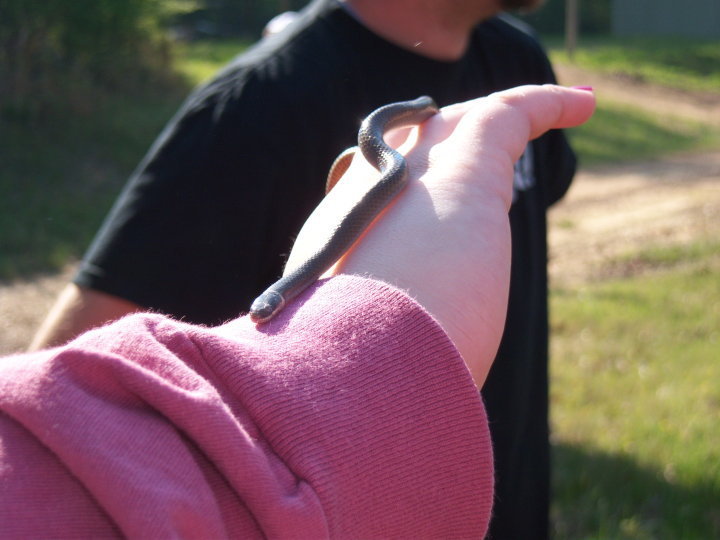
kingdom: Animalia
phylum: Chordata
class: Squamata
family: Colubridae
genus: Diadophis
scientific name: Diadophis punctatus
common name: Ringneck snake
